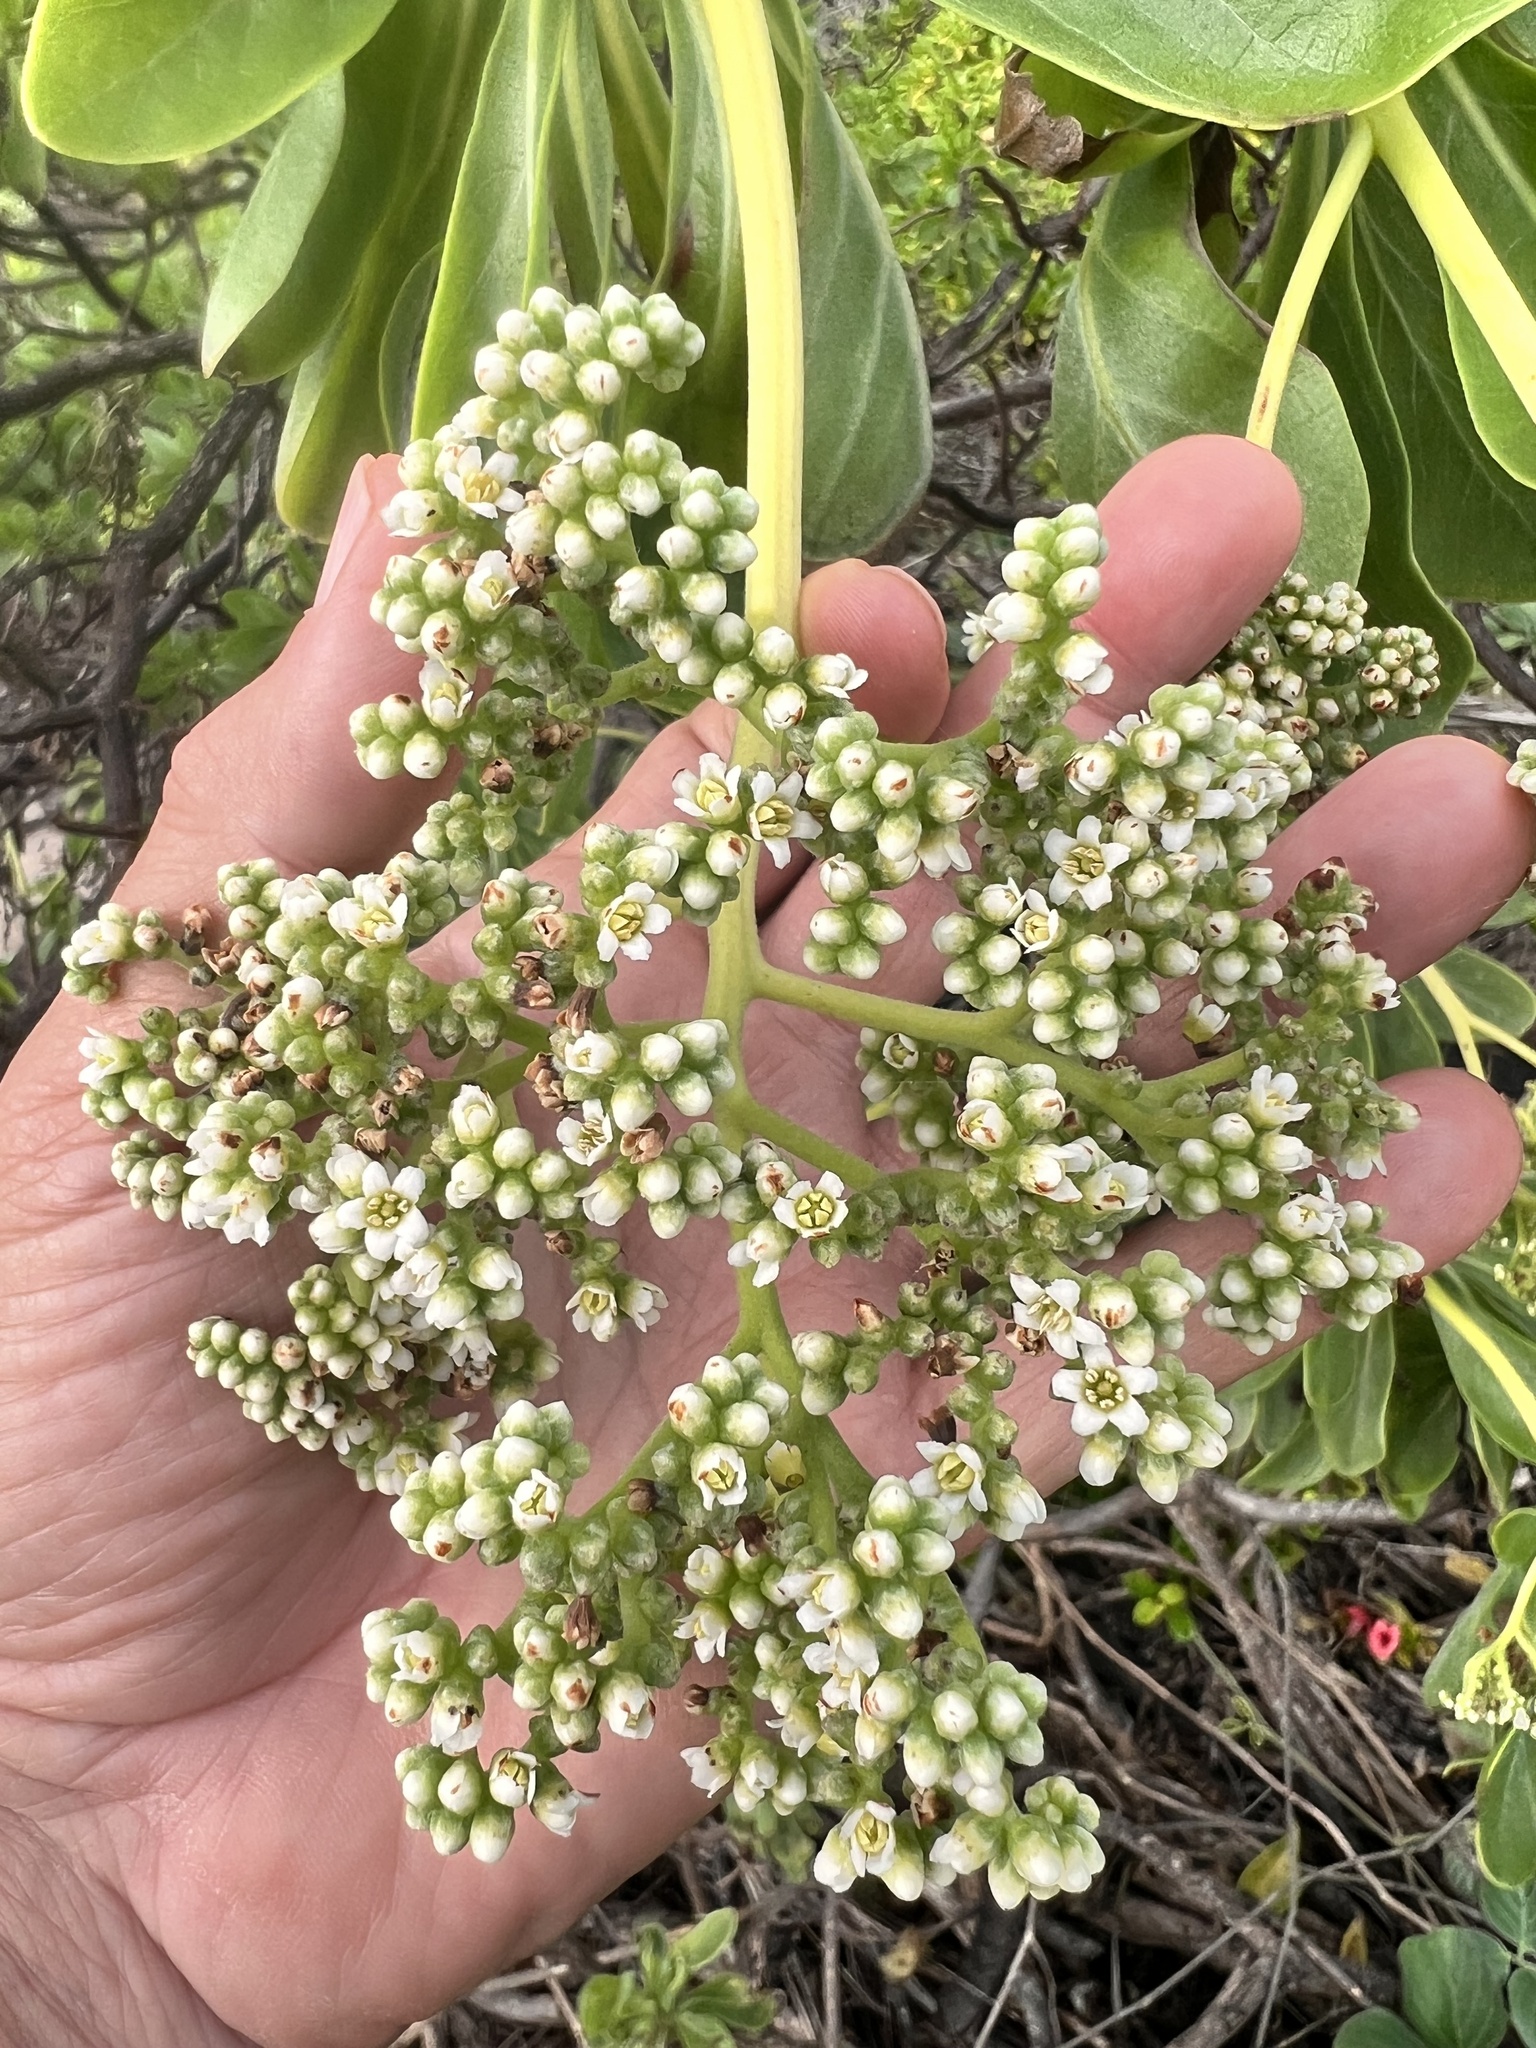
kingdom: Plantae
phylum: Tracheophyta
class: Magnoliopsida
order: Boraginales
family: Heliotropiaceae
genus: Heliotropium
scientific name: Heliotropium velutinum
